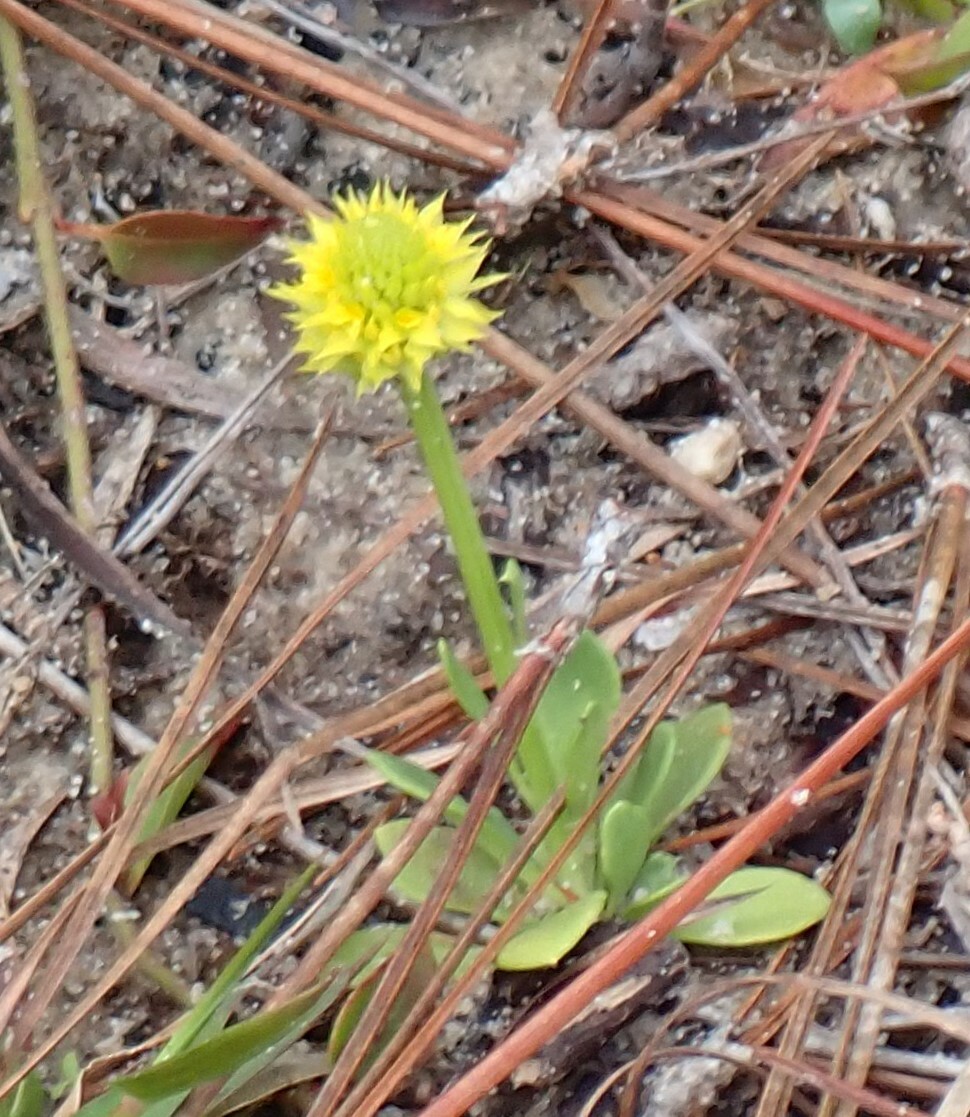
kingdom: Plantae
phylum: Tracheophyta
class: Magnoliopsida
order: Fabales
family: Polygalaceae
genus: Polygala
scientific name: Polygala nana
